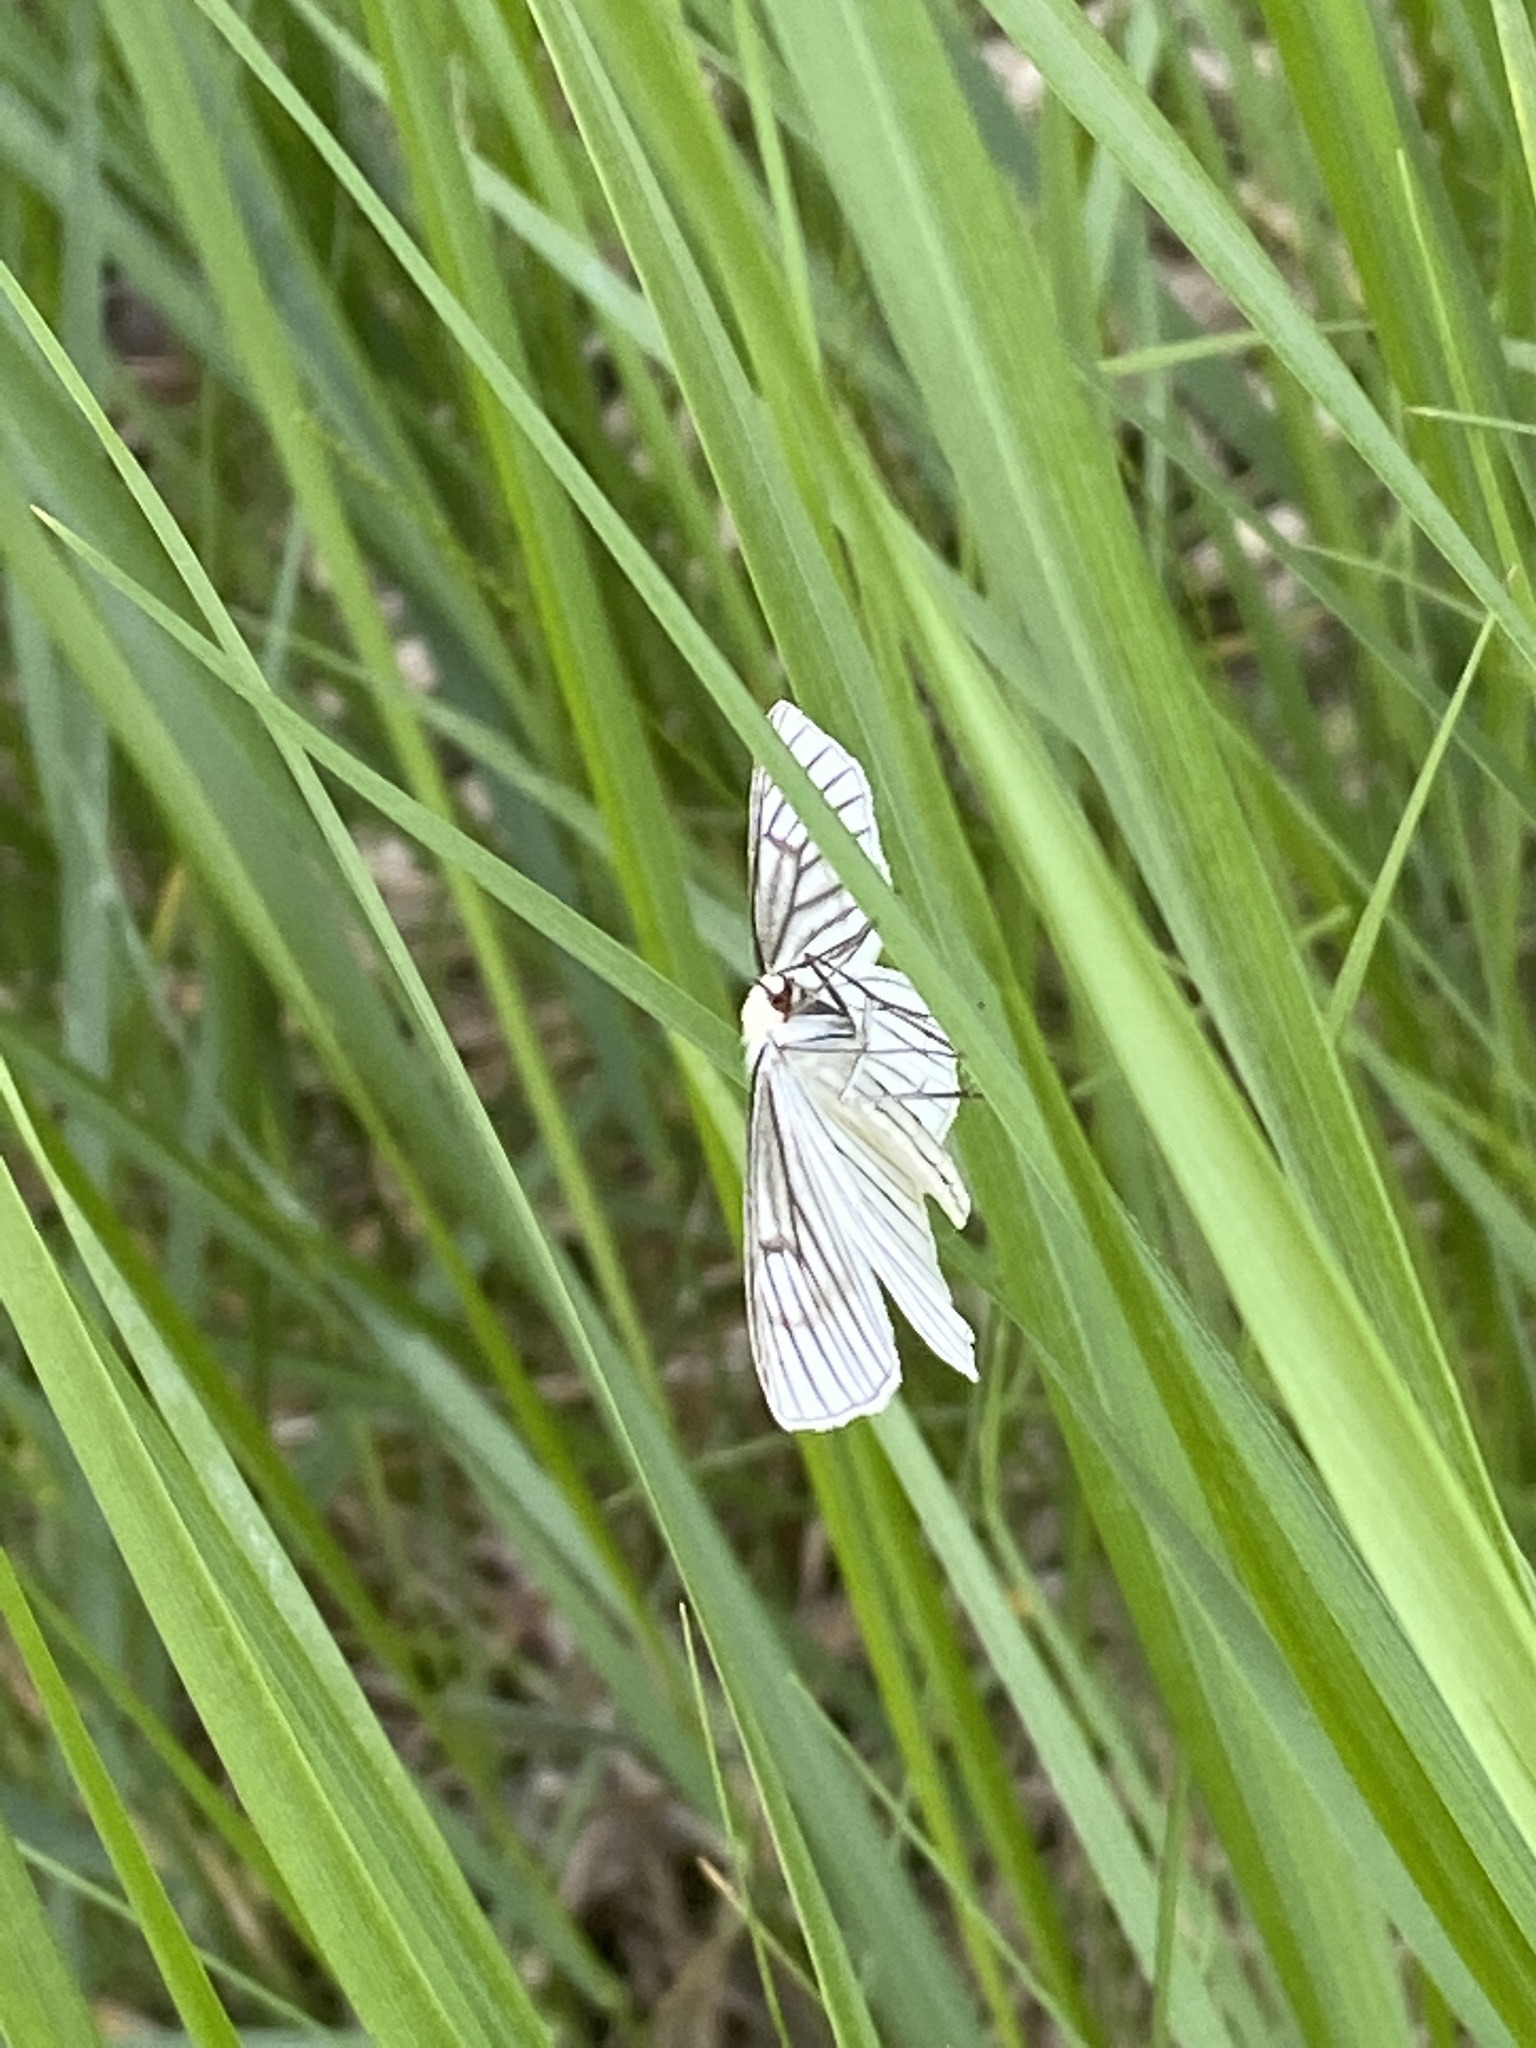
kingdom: Animalia
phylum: Arthropoda
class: Insecta
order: Lepidoptera
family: Geometridae
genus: Siona
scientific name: Siona lineata
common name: Black-veined moth
